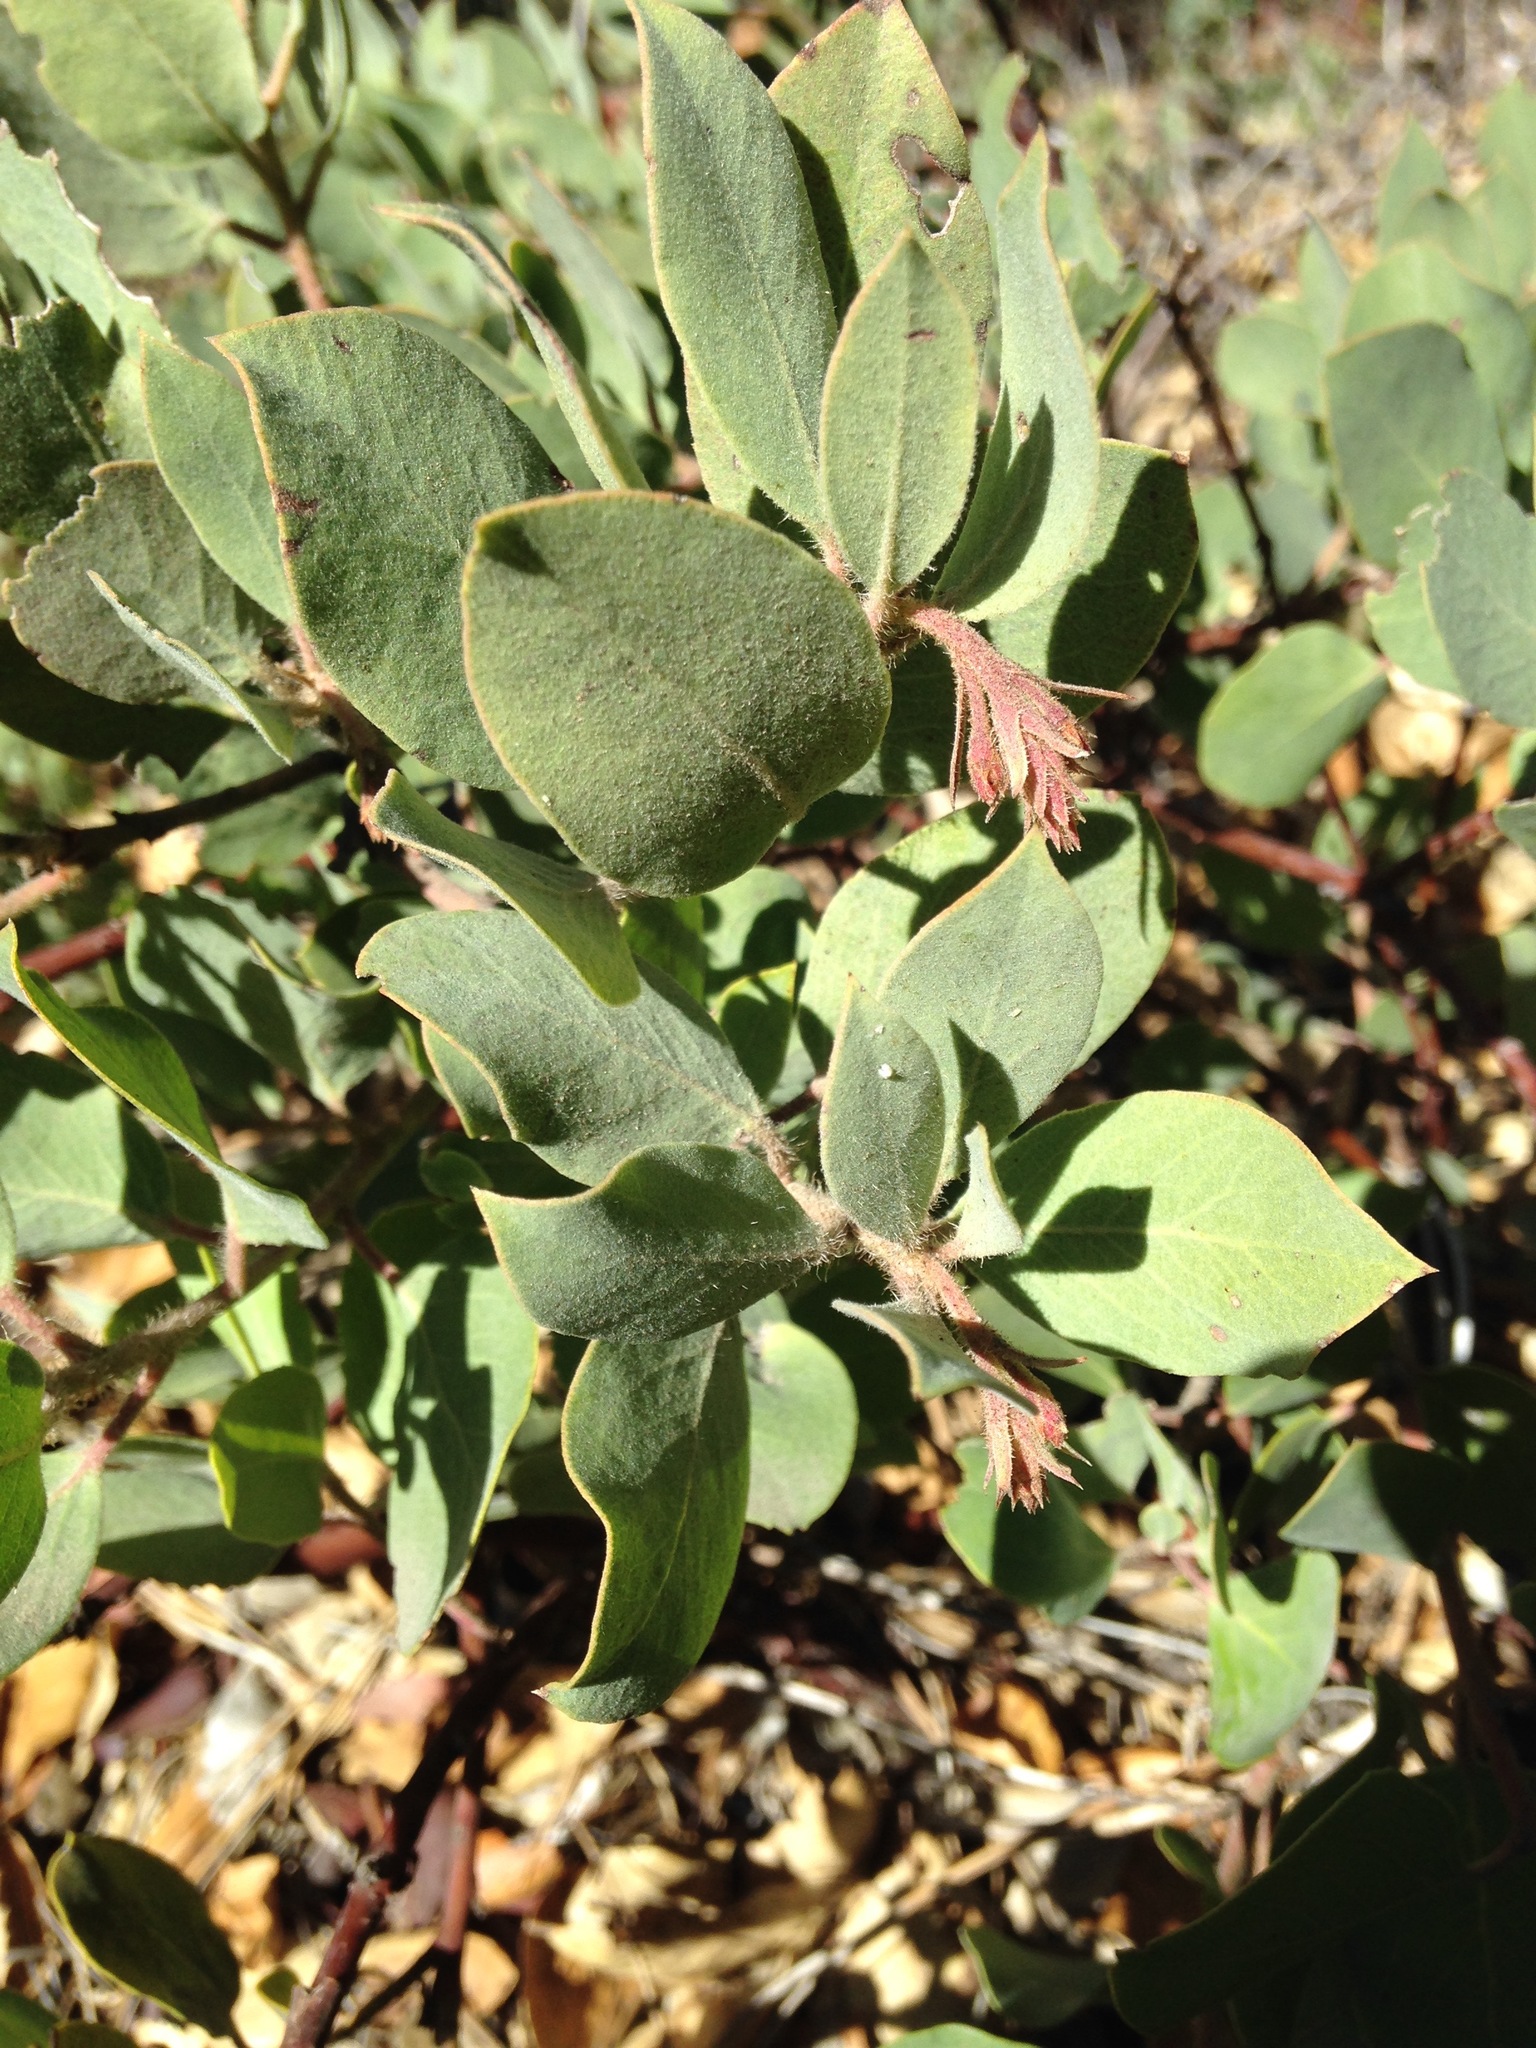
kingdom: Plantae
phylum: Tracheophyta
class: Magnoliopsida
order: Ericales
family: Ericaceae
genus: Arctostaphylos
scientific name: Arctostaphylos glandulosa
